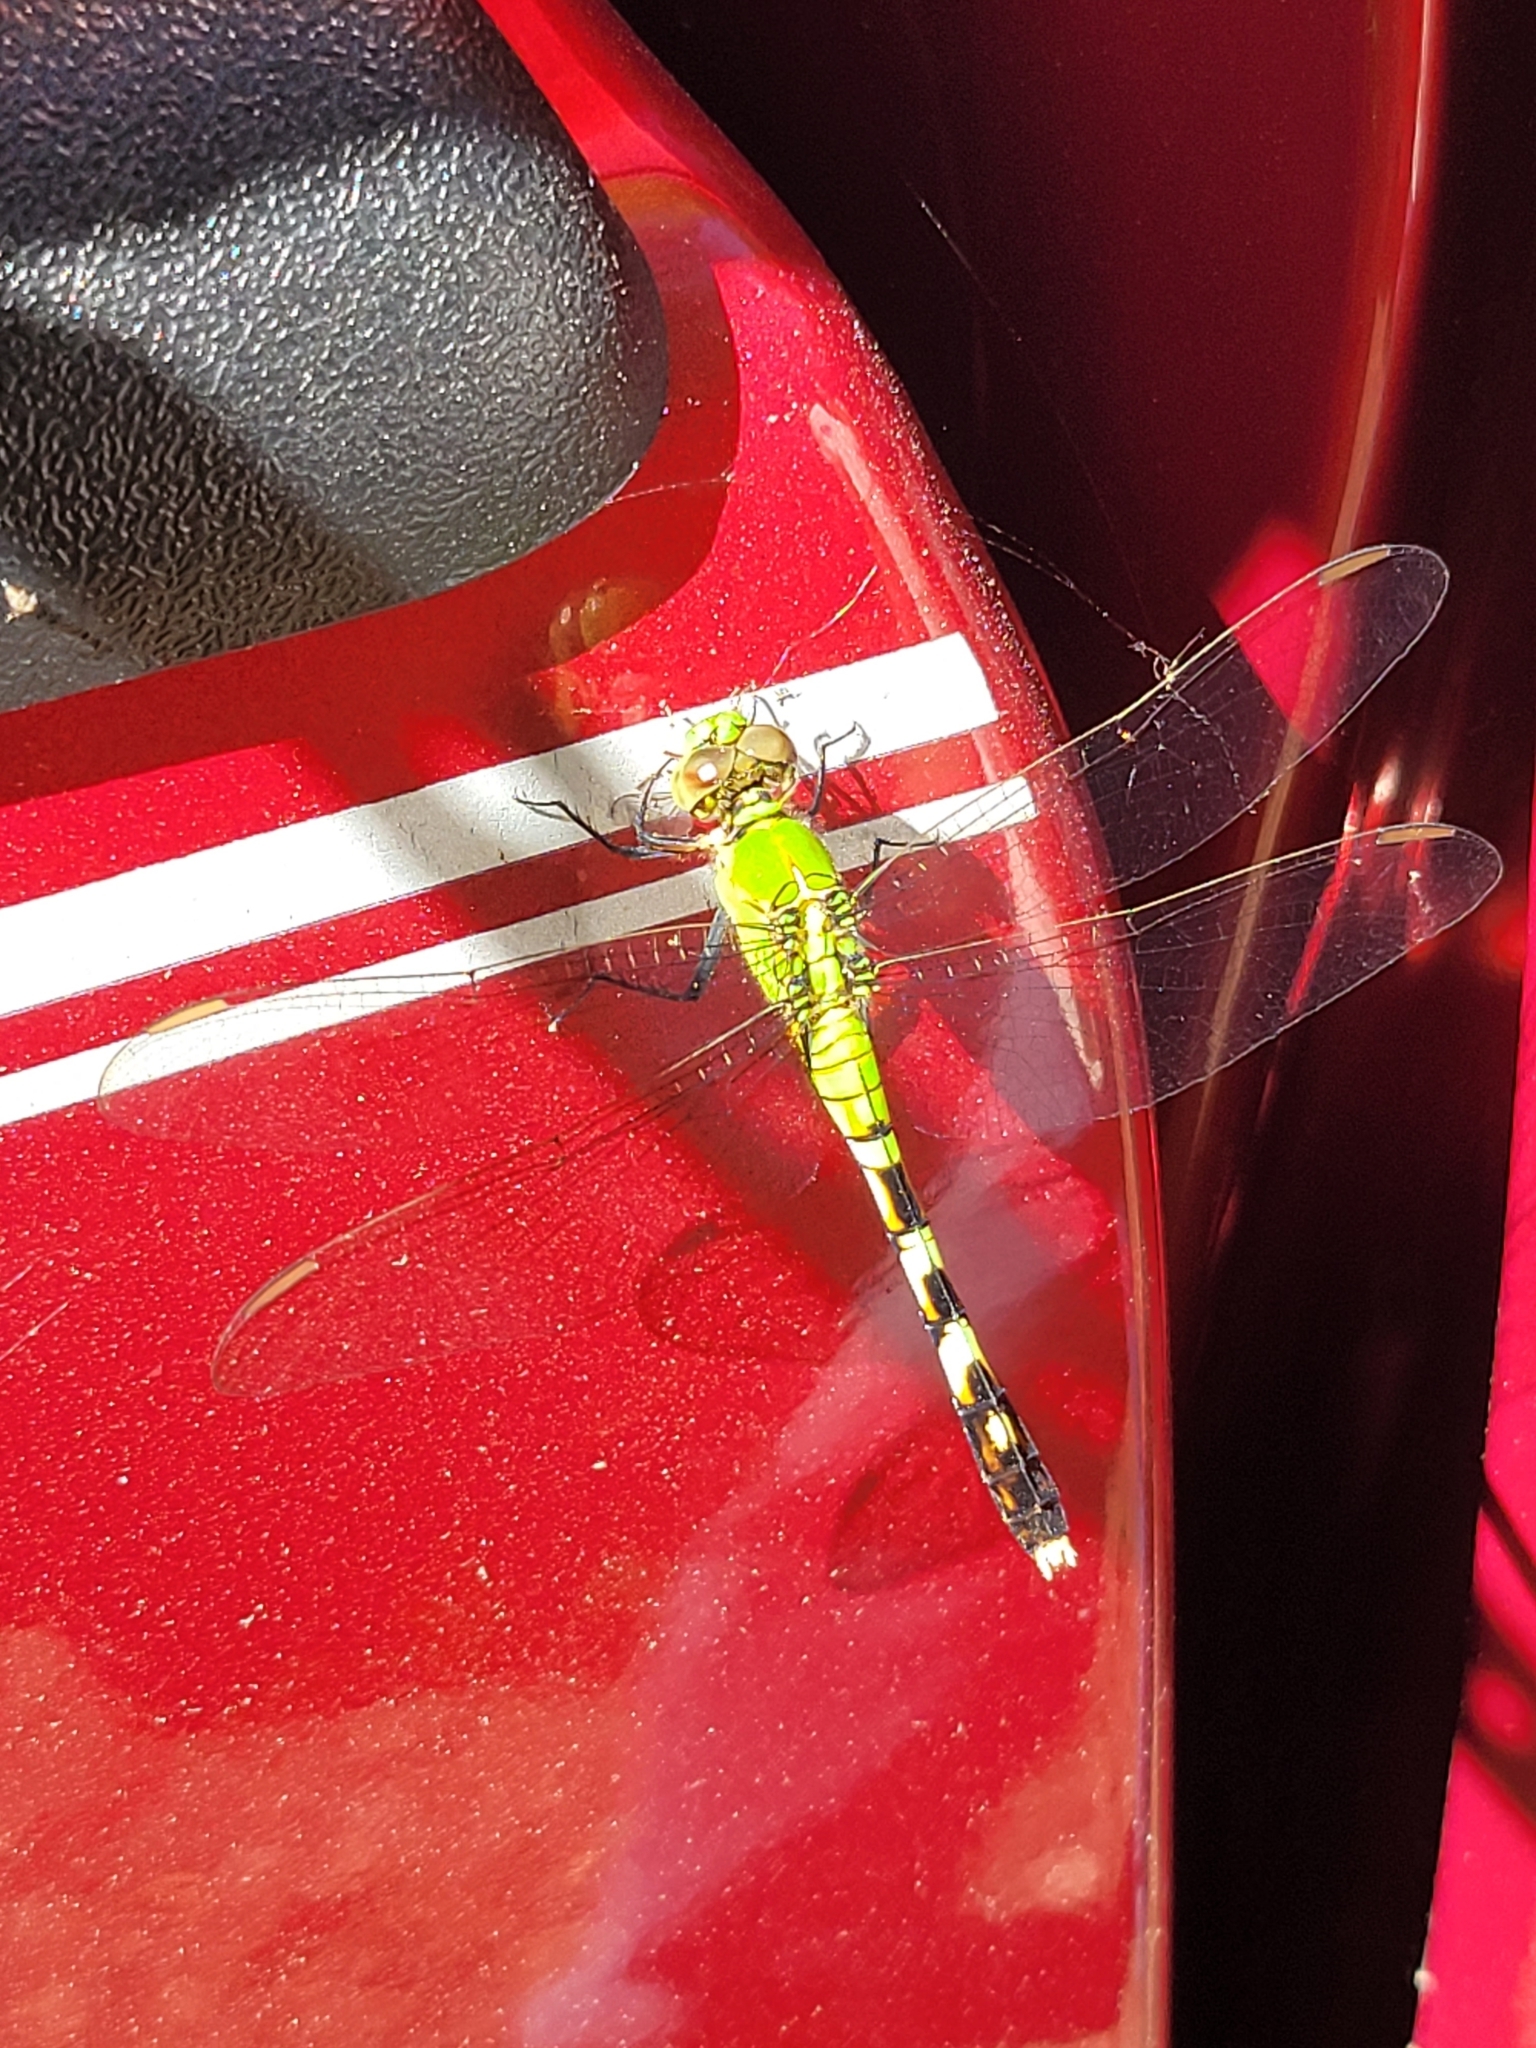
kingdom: Animalia
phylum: Arthropoda
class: Insecta
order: Odonata
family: Libellulidae
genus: Erythemis
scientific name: Erythemis simplicicollis
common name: Eastern pondhawk
